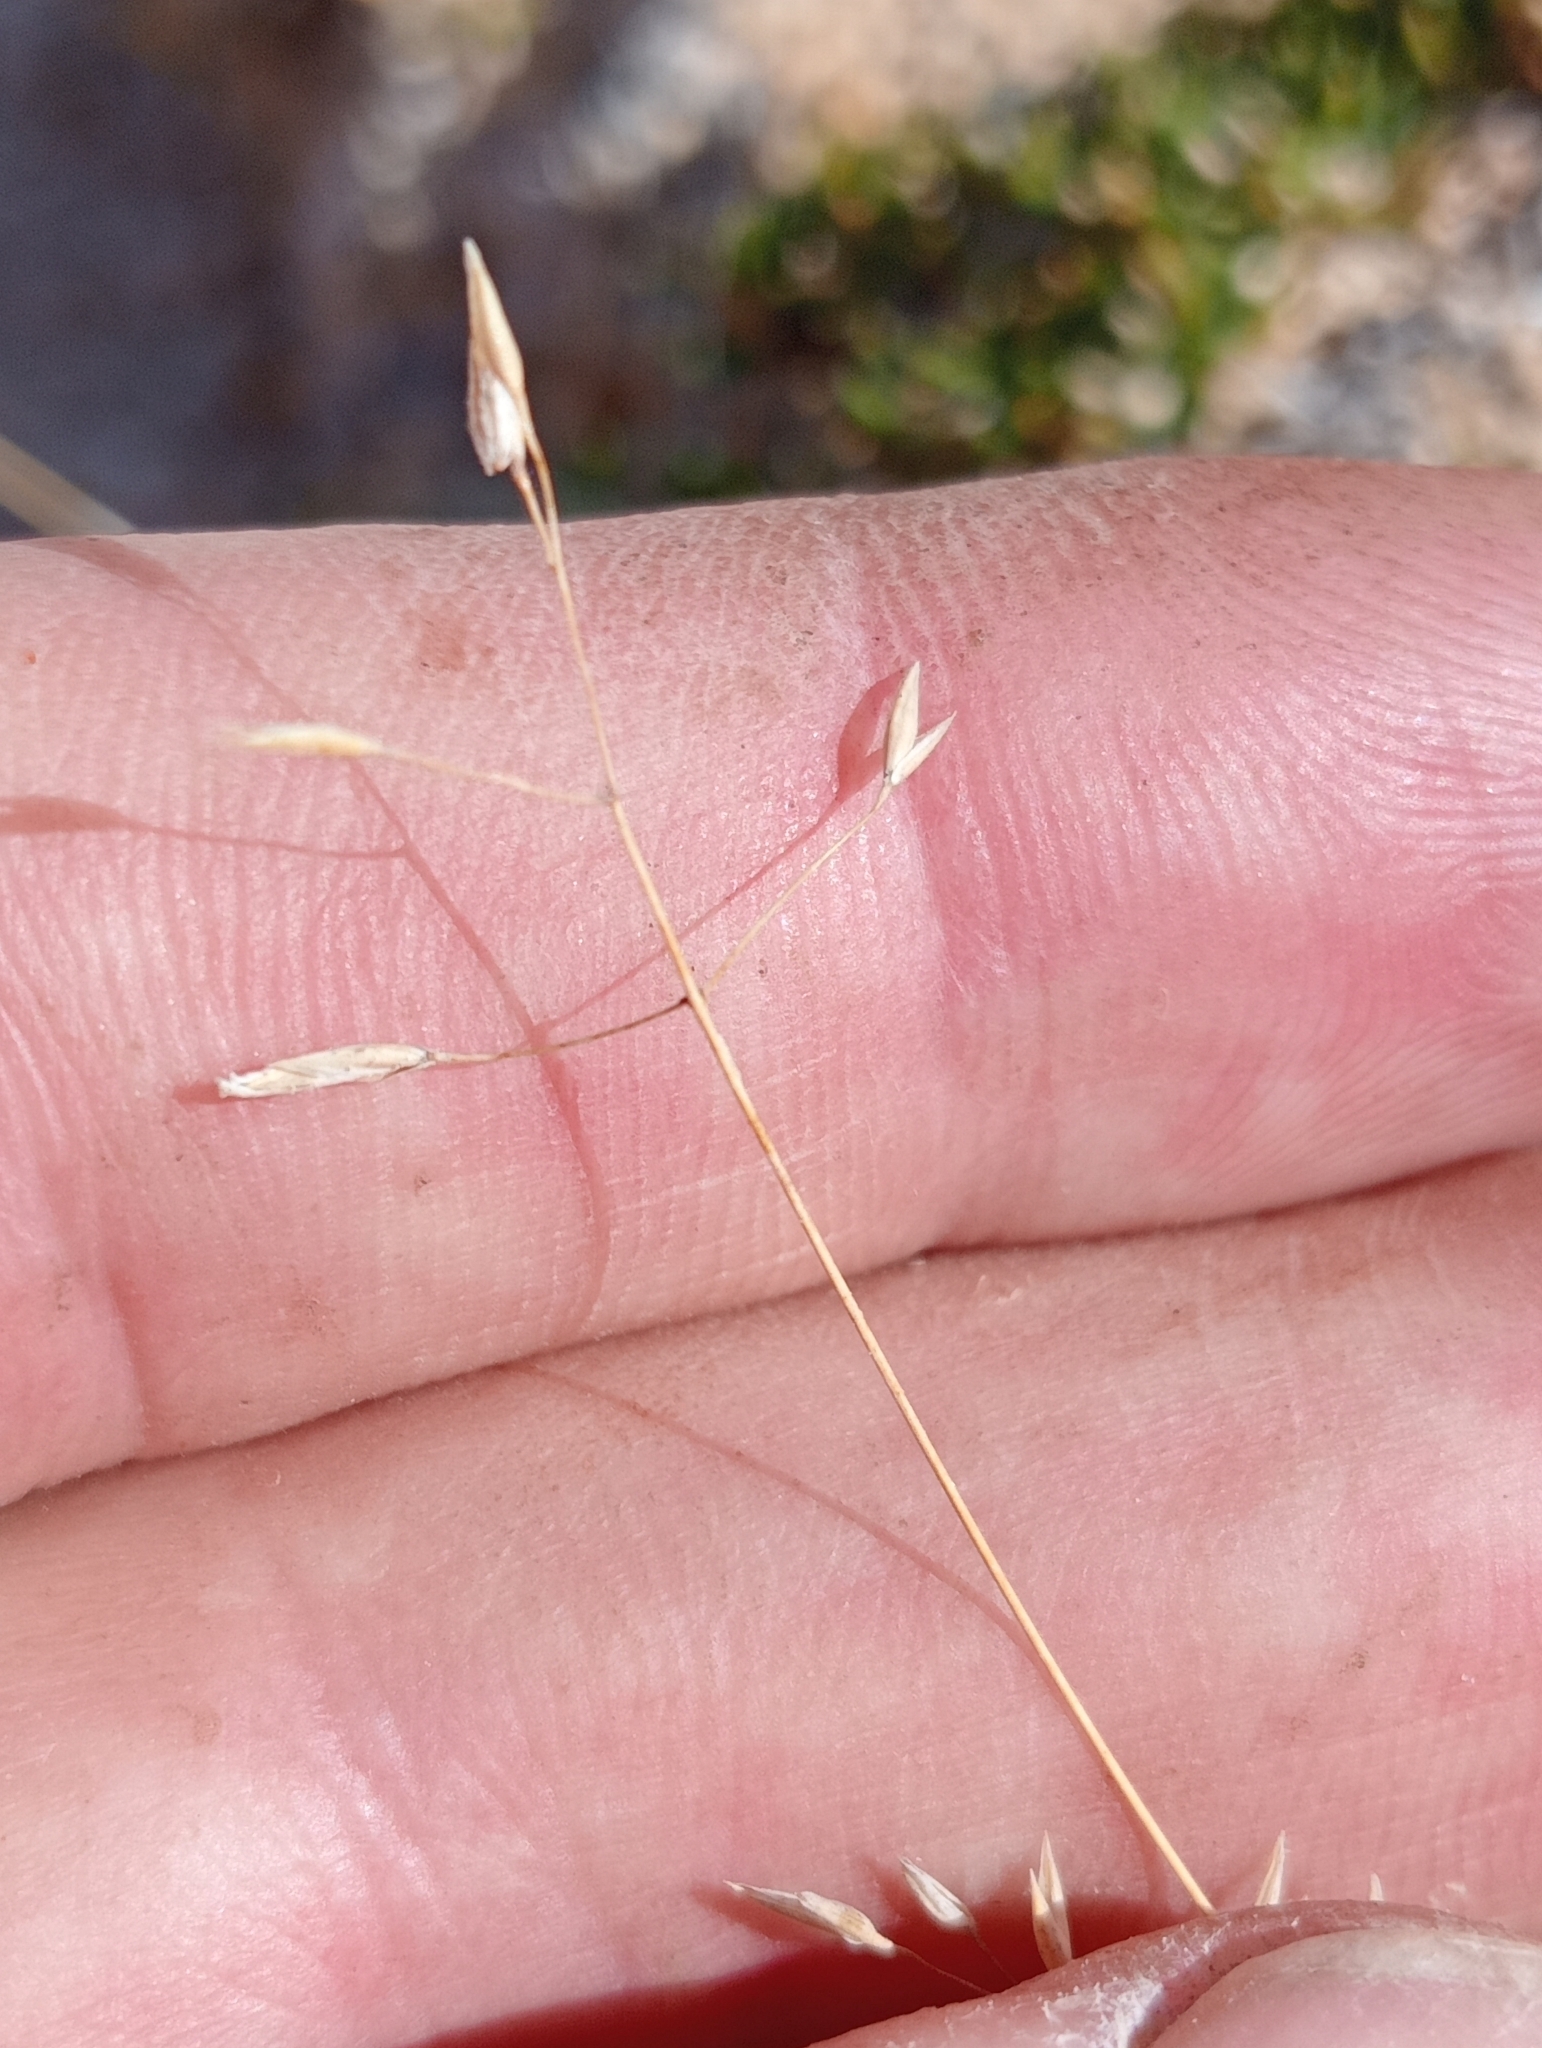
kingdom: Plantae
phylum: Tracheophyta
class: Liliopsida
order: Poales
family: Poaceae
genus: Poa
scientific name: Poa acicularifolia
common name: Limestone cushion poa
